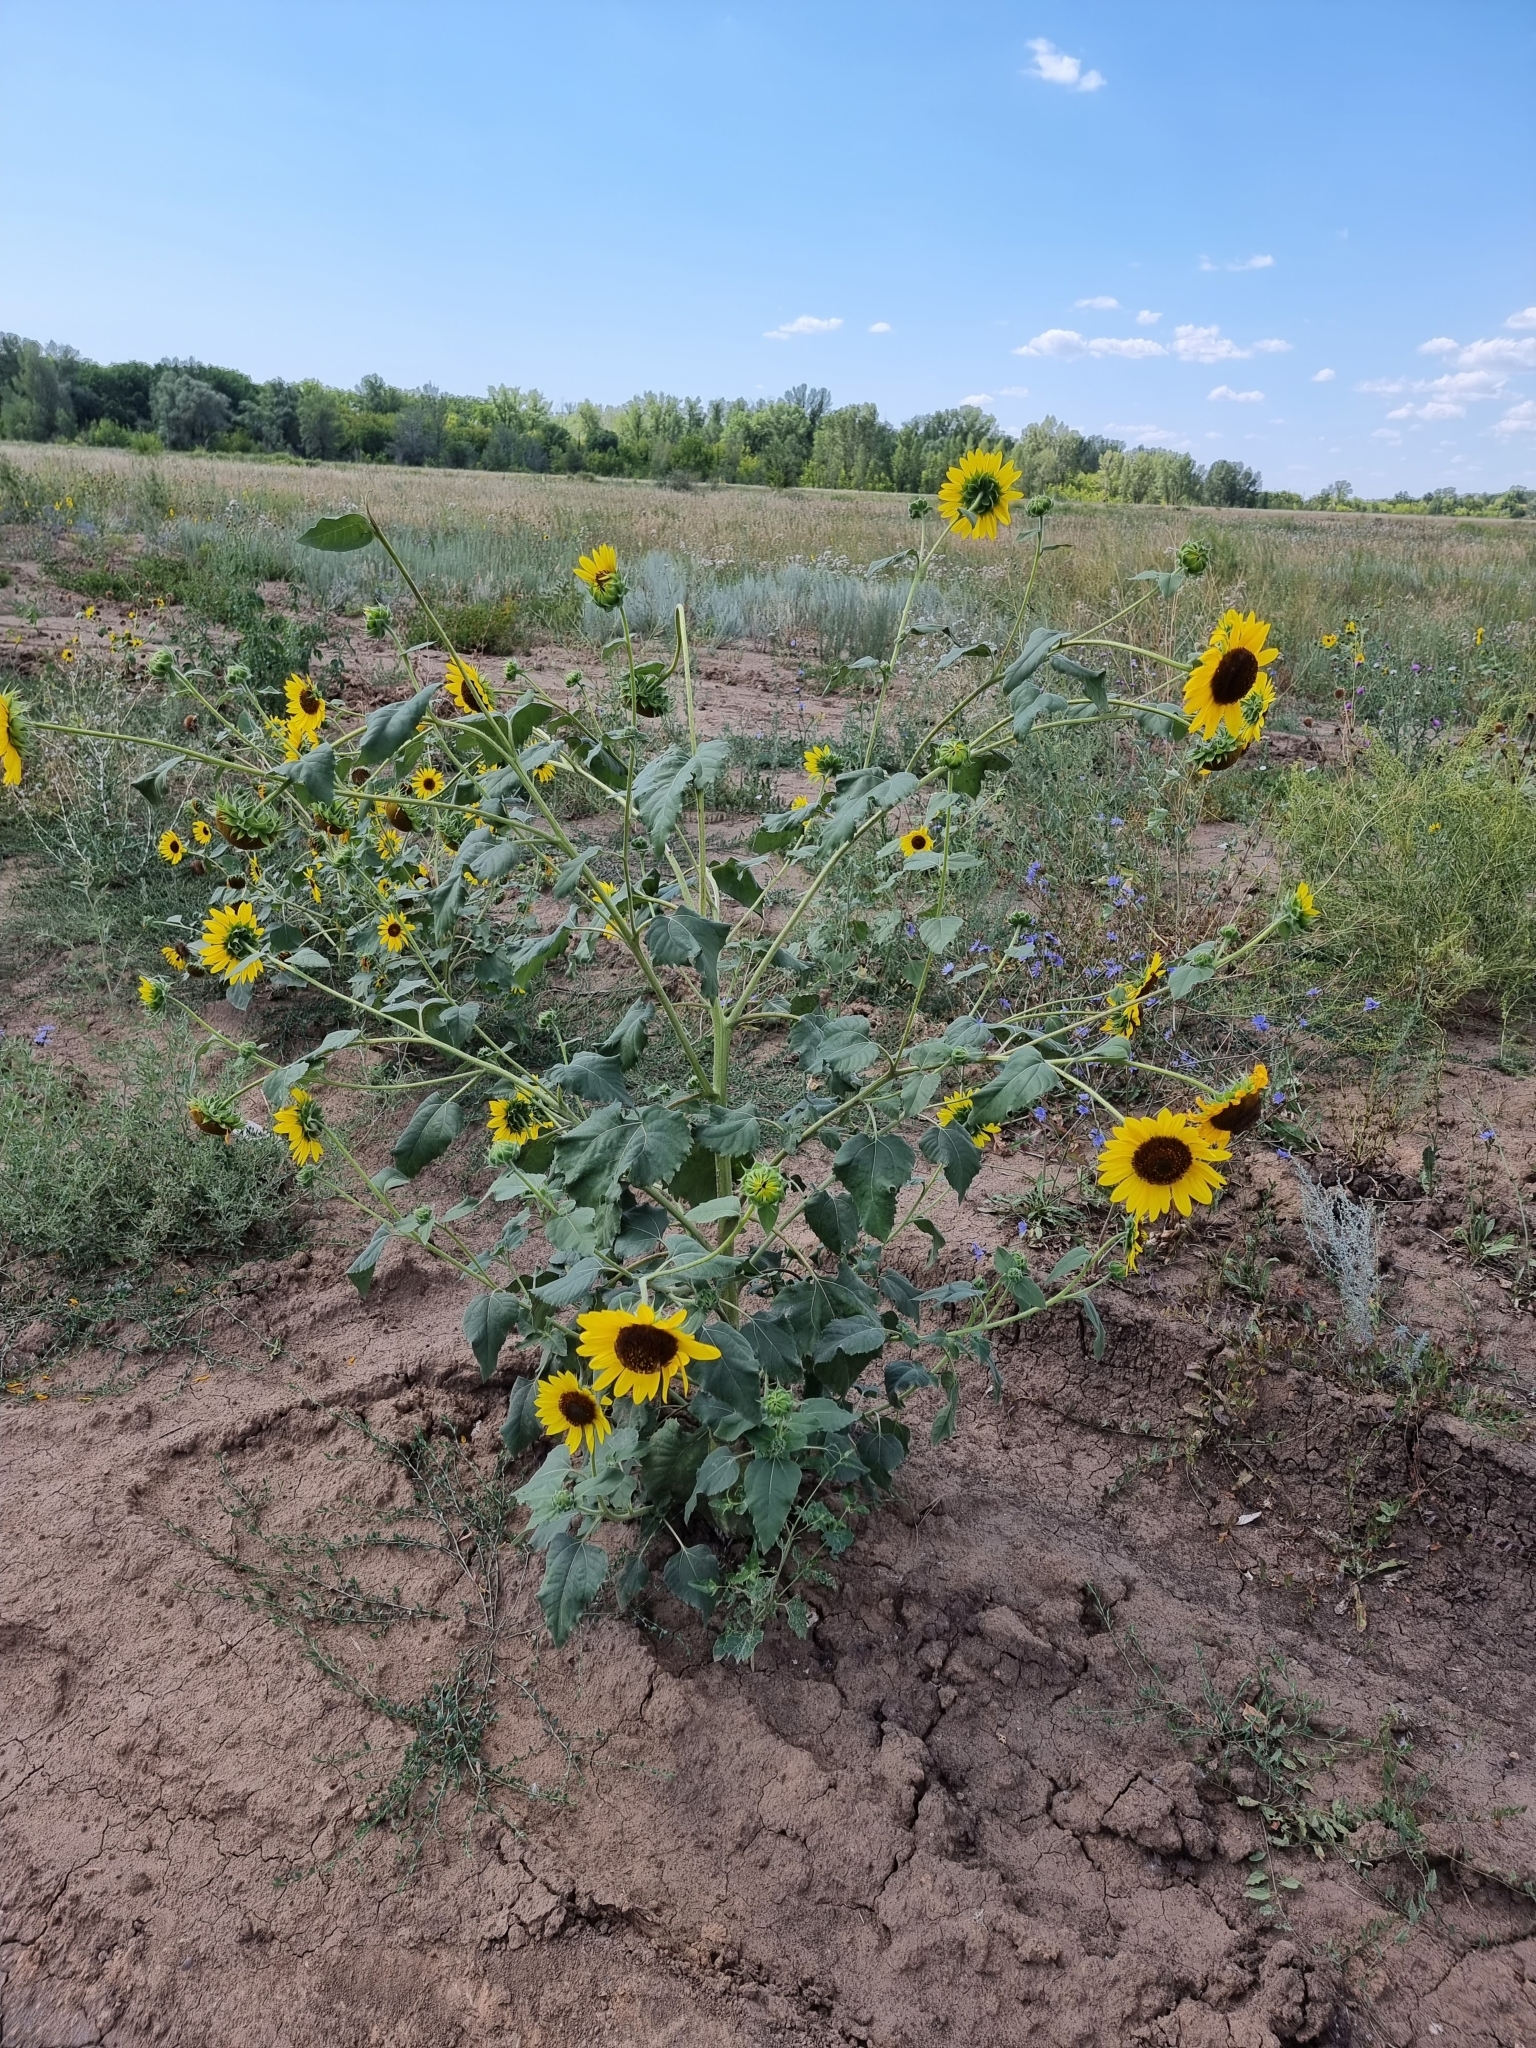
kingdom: Plantae
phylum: Tracheophyta
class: Magnoliopsida
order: Asterales
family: Asteraceae
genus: Helianthus
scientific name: Helianthus annuus
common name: Sunflower
